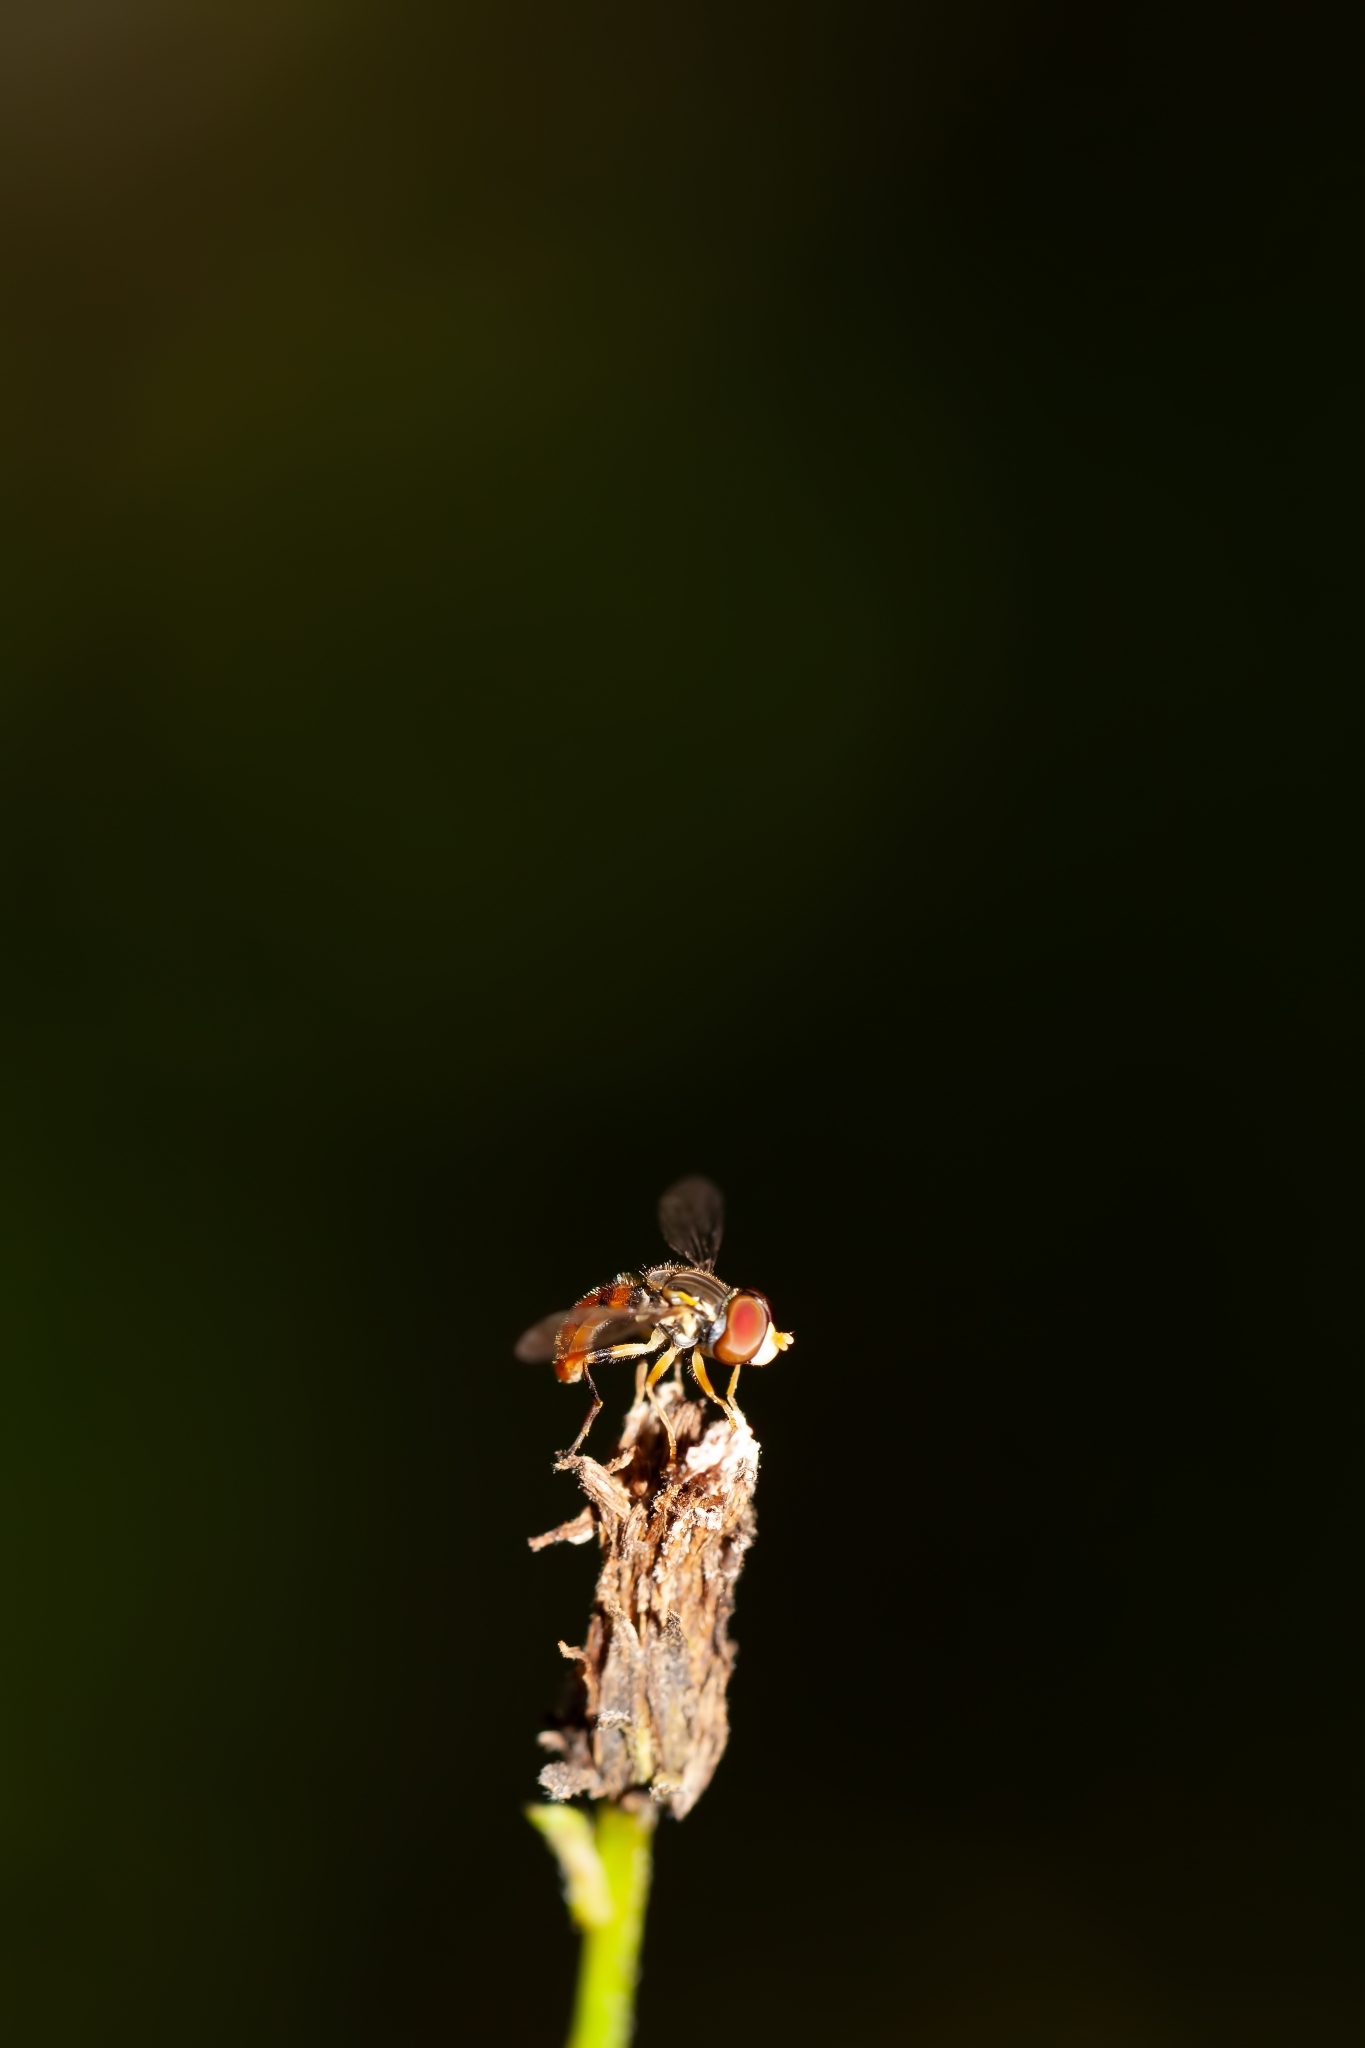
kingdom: Animalia
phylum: Arthropoda
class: Insecta
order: Diptera
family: Syrphidae
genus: Toxomerus
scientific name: Toxomerus boscii
